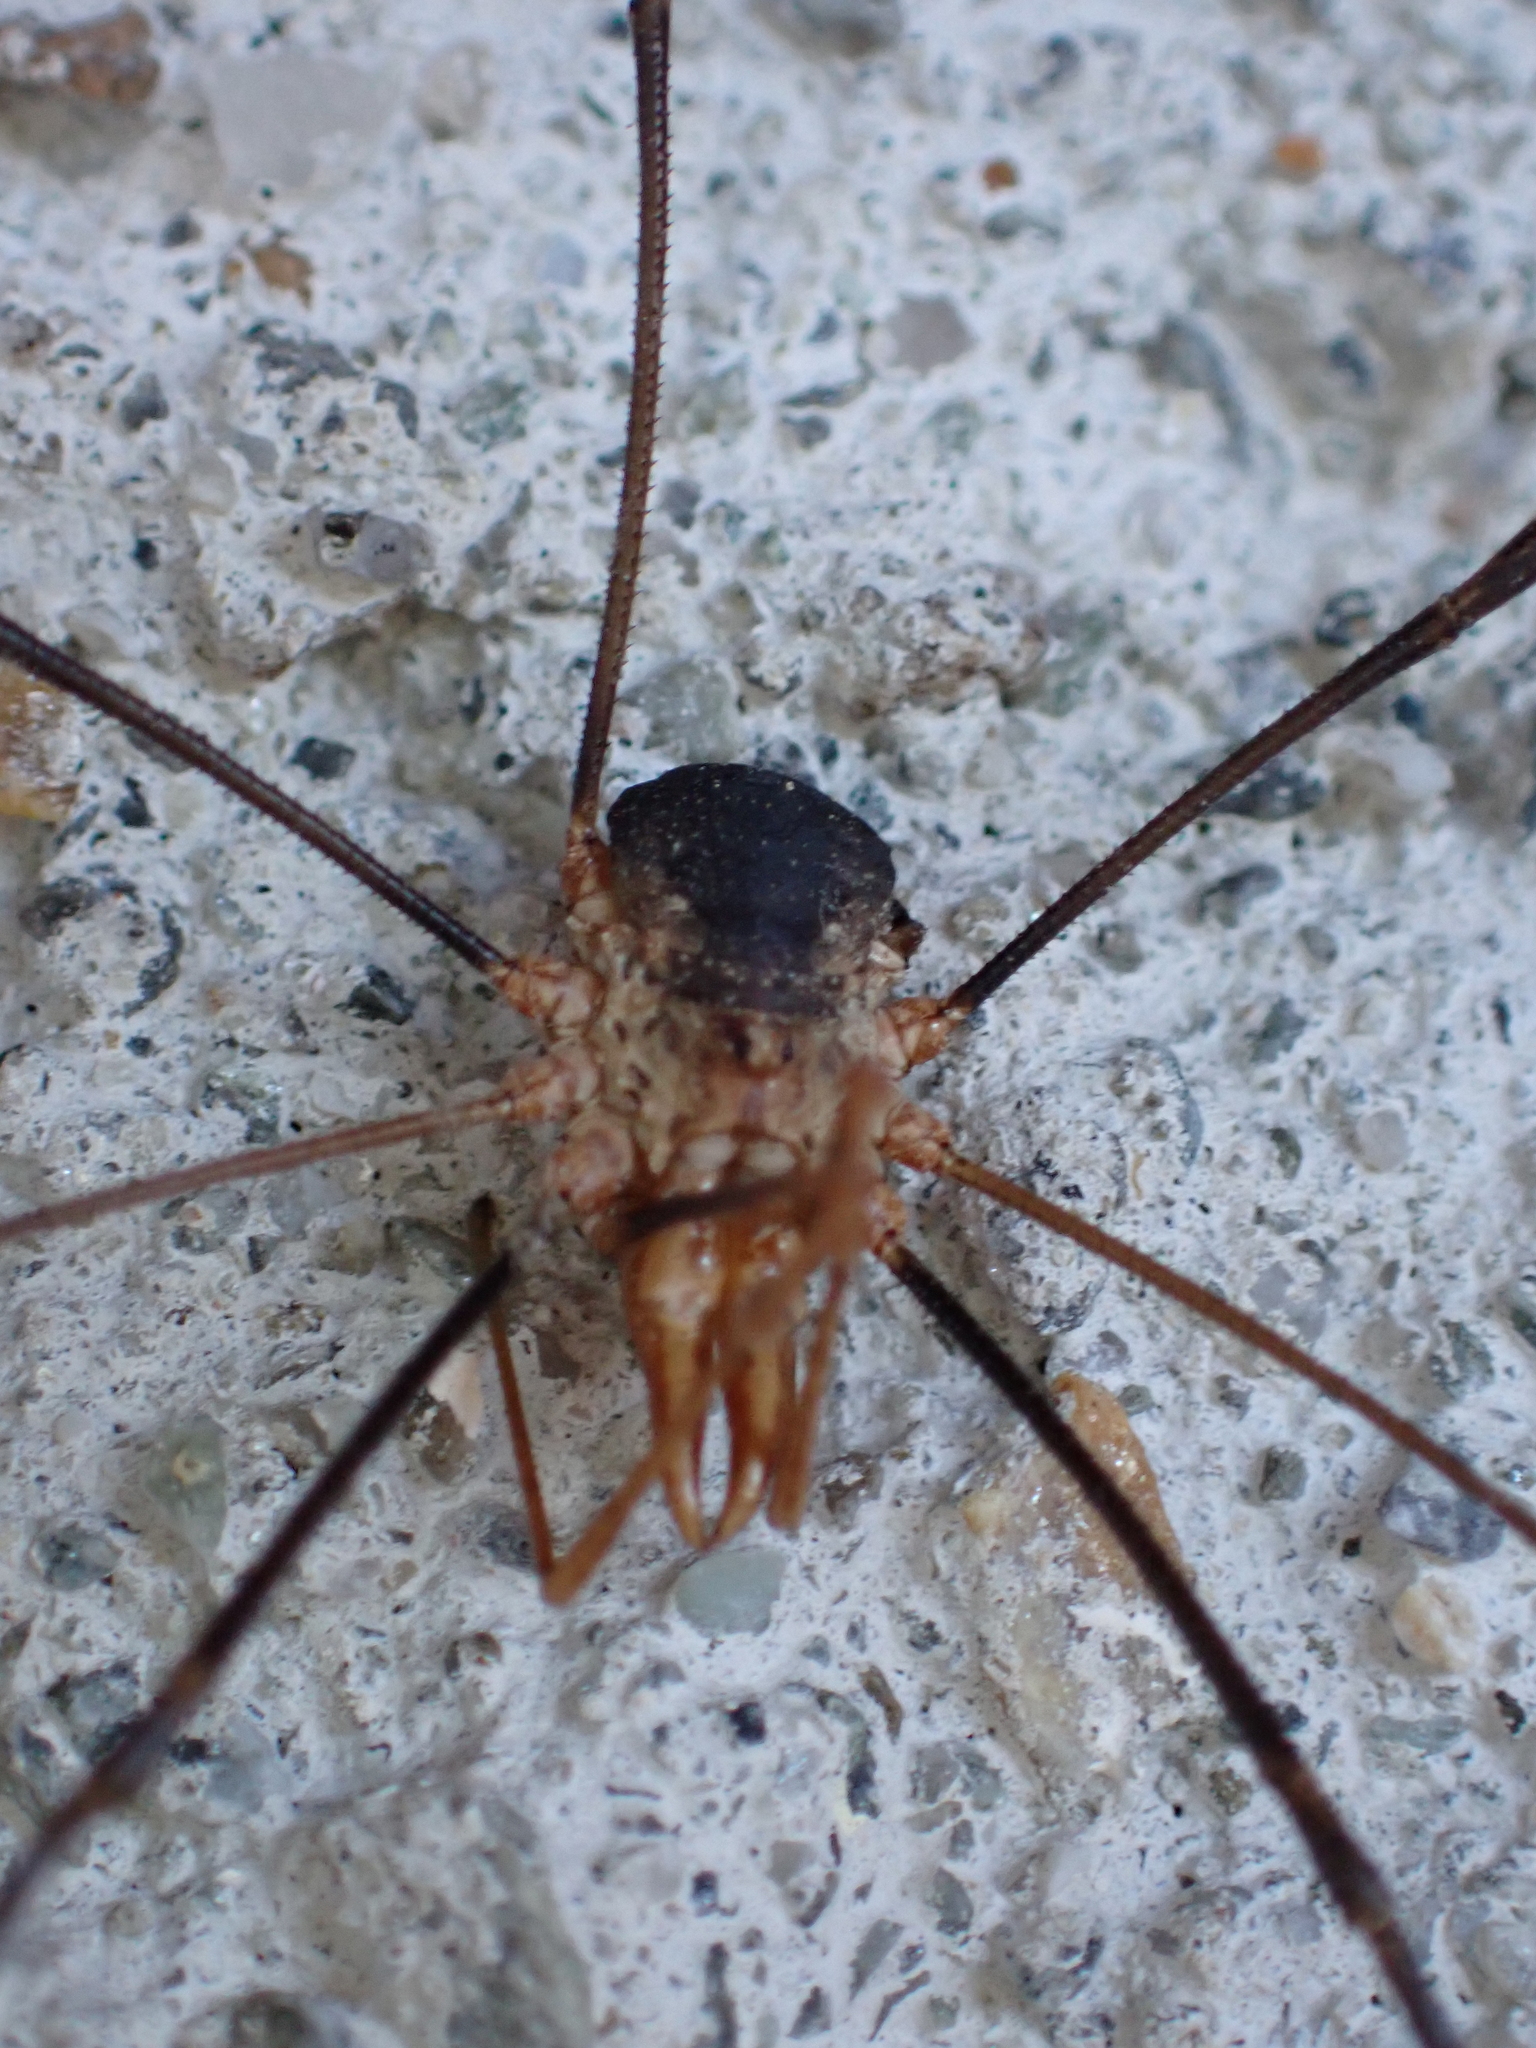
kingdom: Animalia
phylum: Arthropoda
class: Arachnida
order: Opiliones
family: Phalangiidae
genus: Phalangium
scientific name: Phalangium opilio
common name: Daddy longleg
